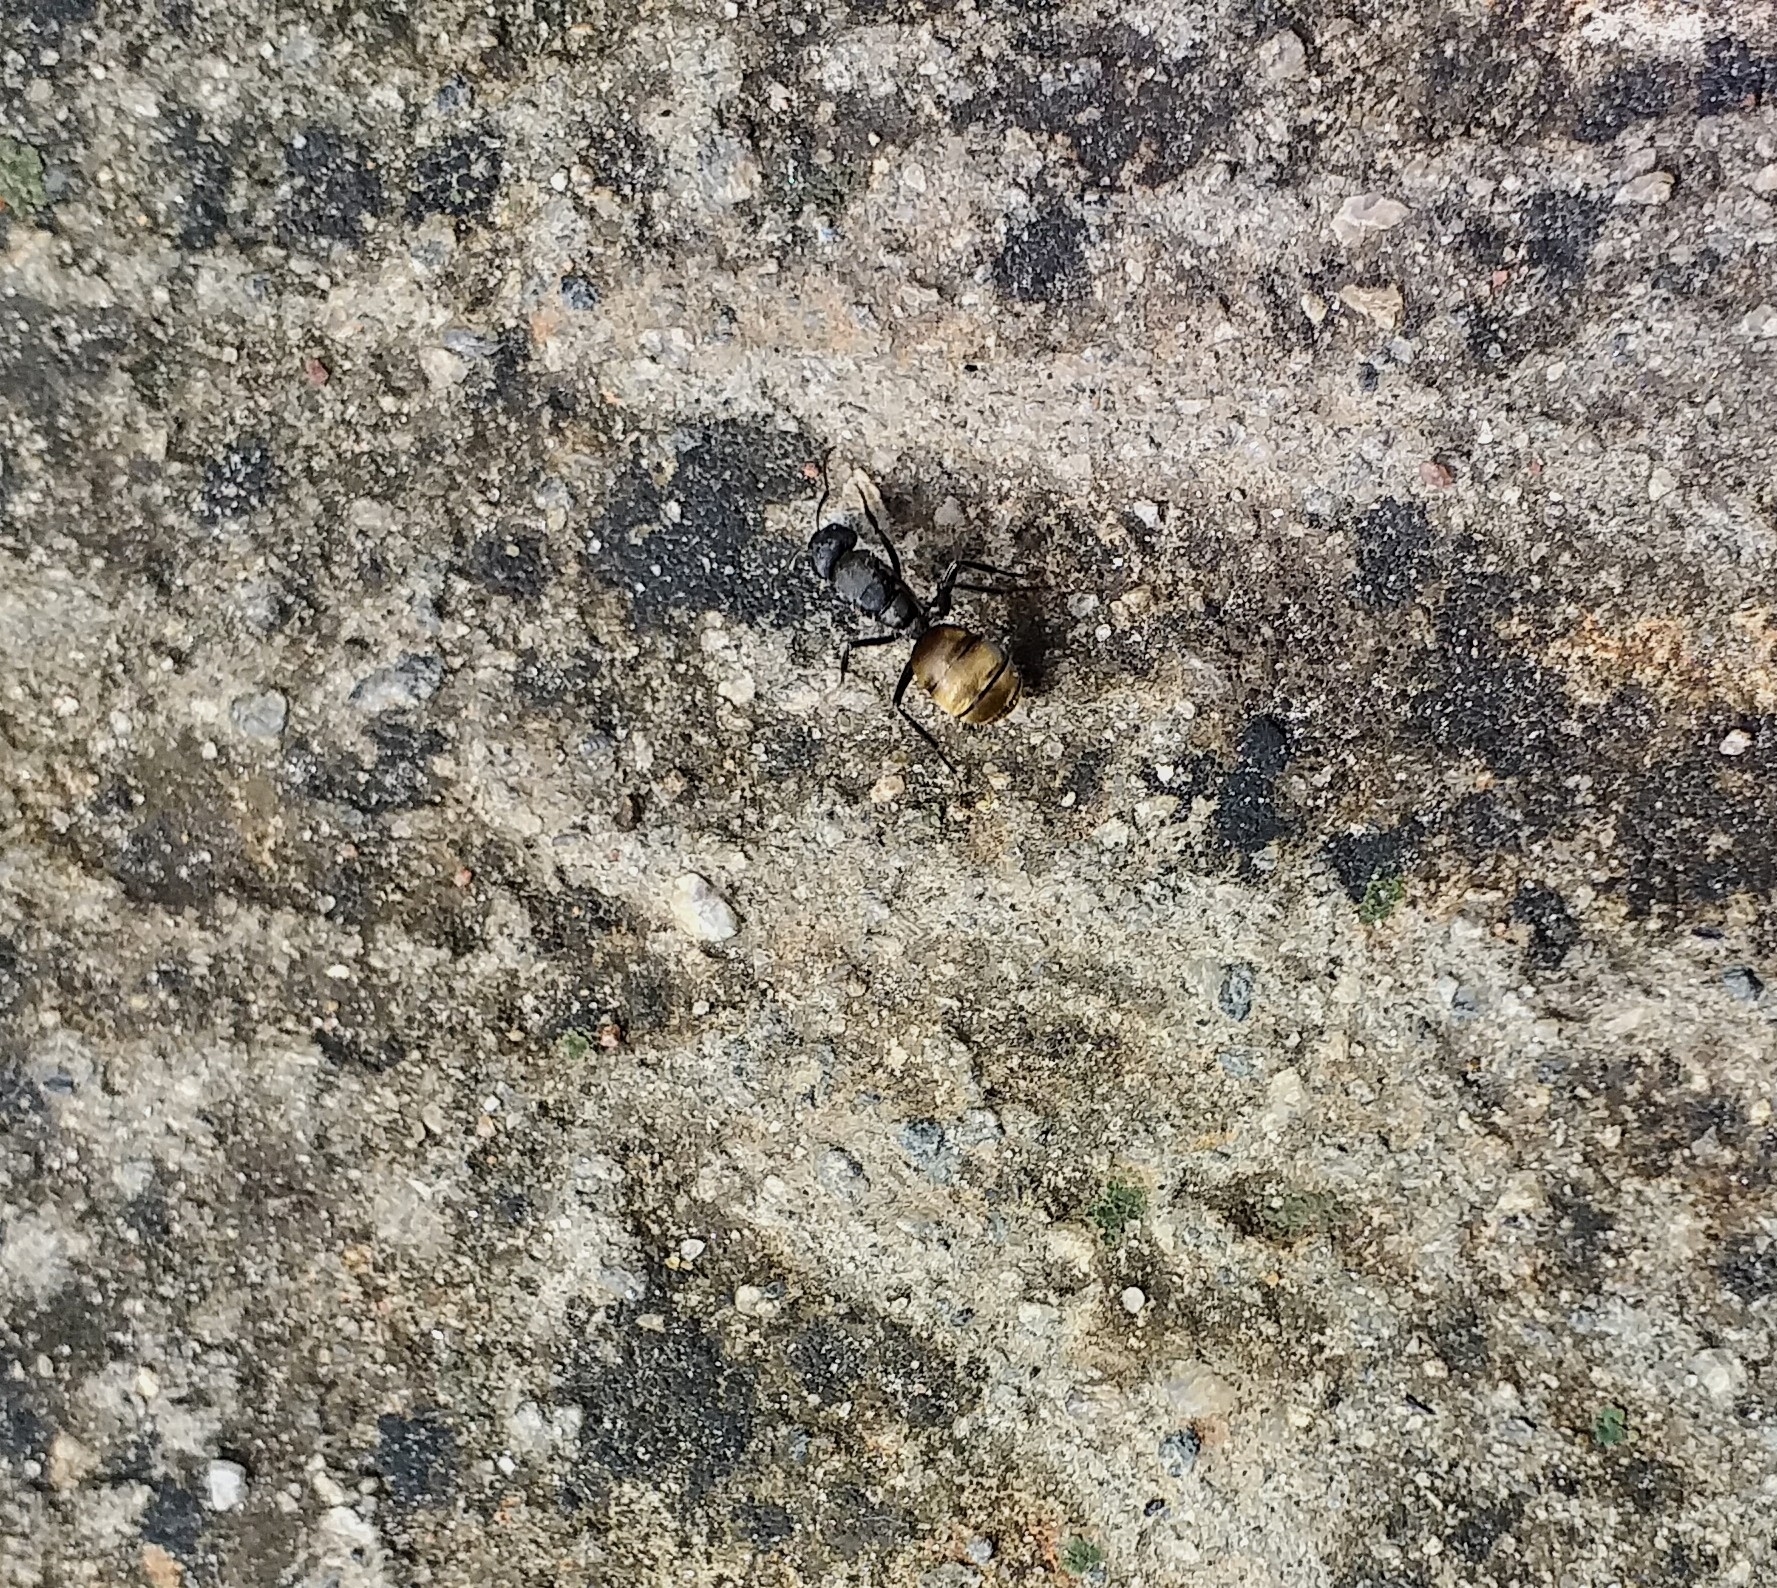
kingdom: Animalia
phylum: Arthropoda
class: Insecta
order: Hymenoptera
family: Formicidae
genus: Camponotus
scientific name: Camponotus sericeus
